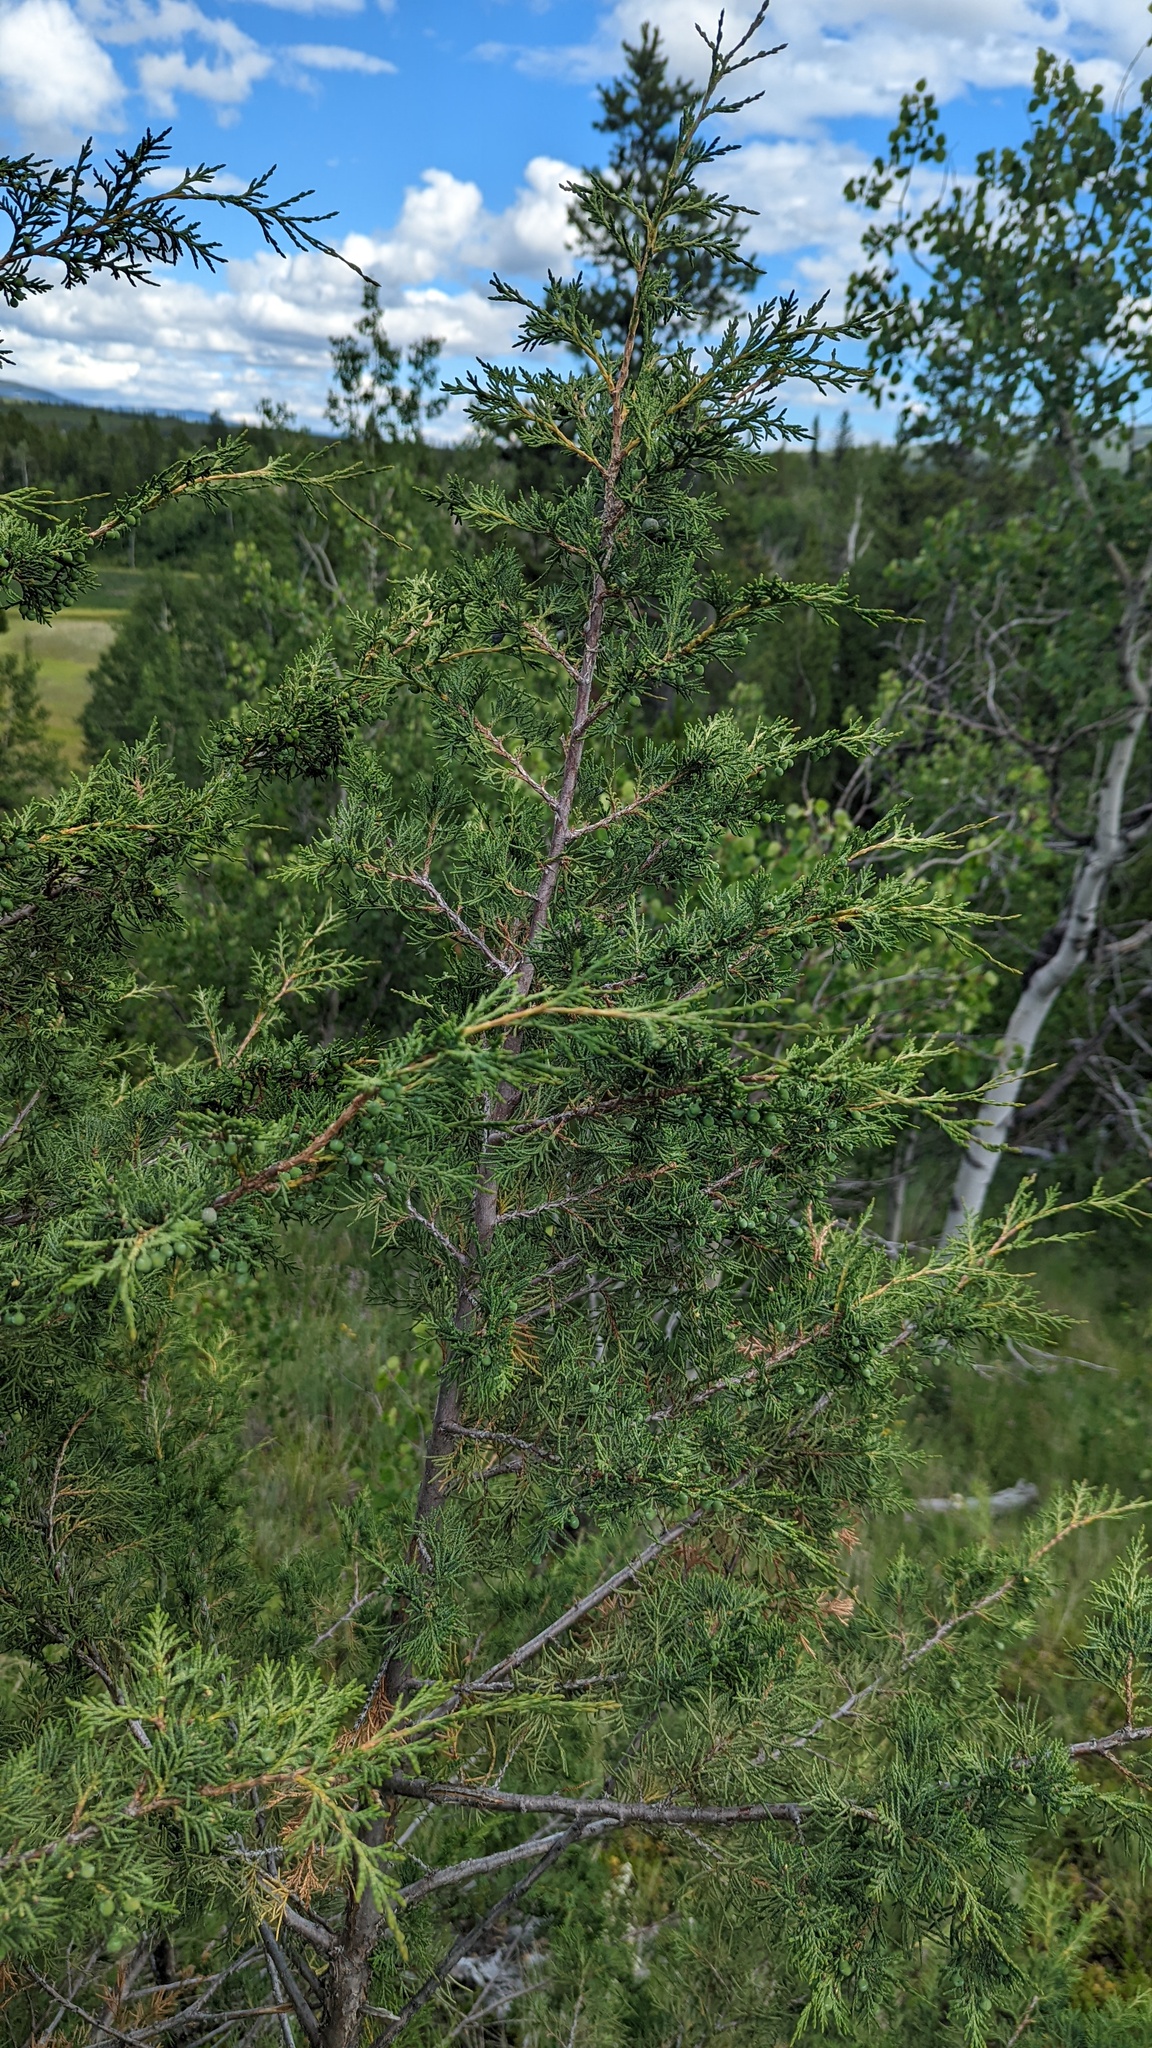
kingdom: Plantae
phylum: Tracheophyta
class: Pinopsida
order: Pinales
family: Cupressaceae
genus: Juniperus
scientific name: Juniperus scopulorum
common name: Rocky mountain juniper
